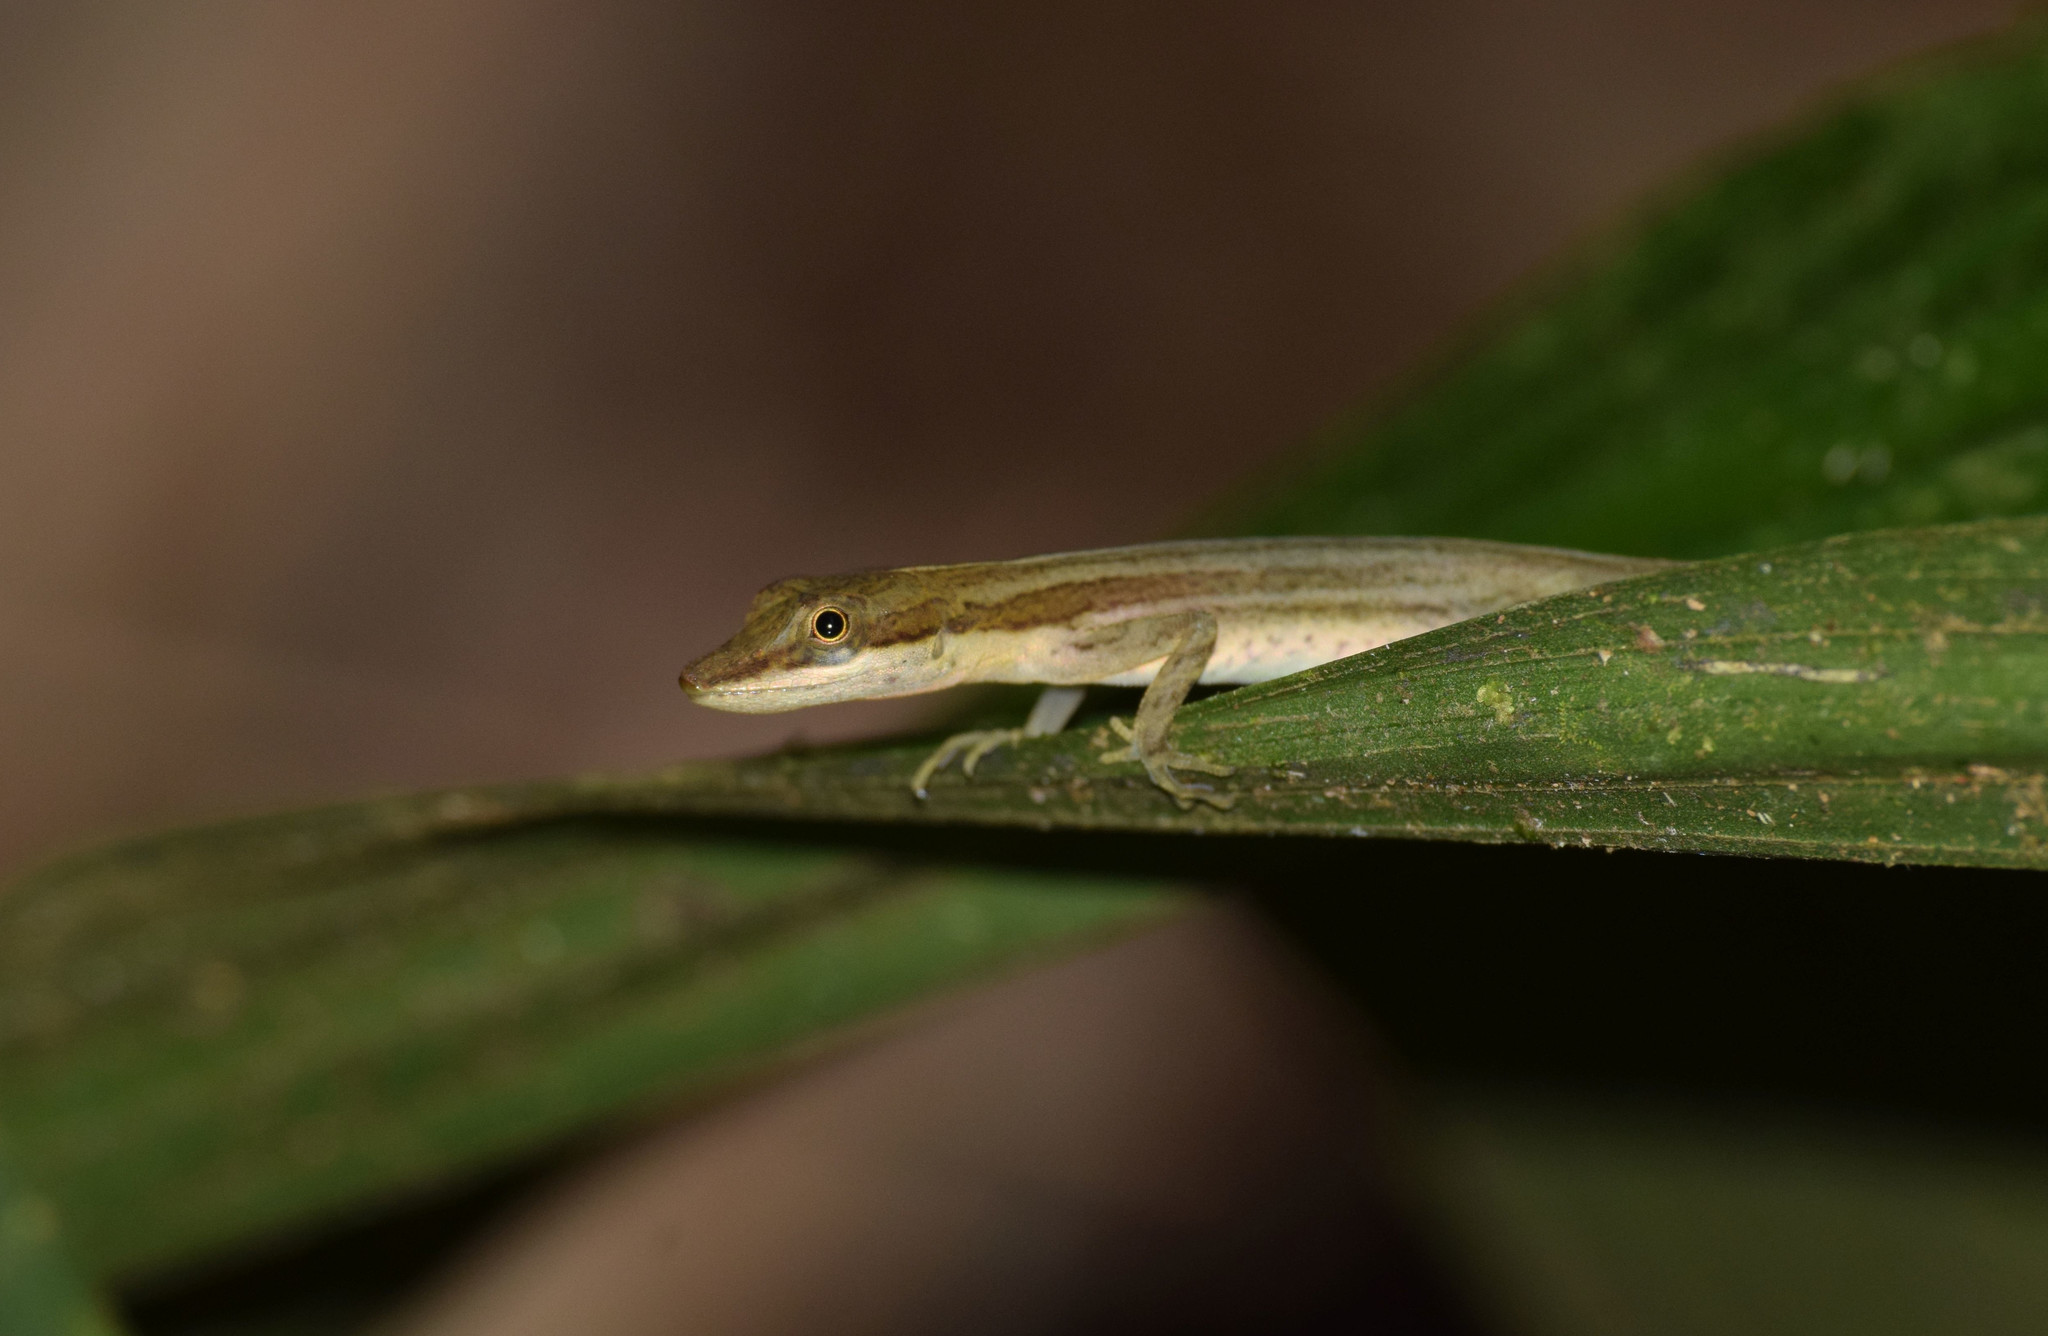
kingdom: Animalia
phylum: Chordata
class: Squamata
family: Dactyloidae
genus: Anolis
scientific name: Anolis limifrons
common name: Border anole
